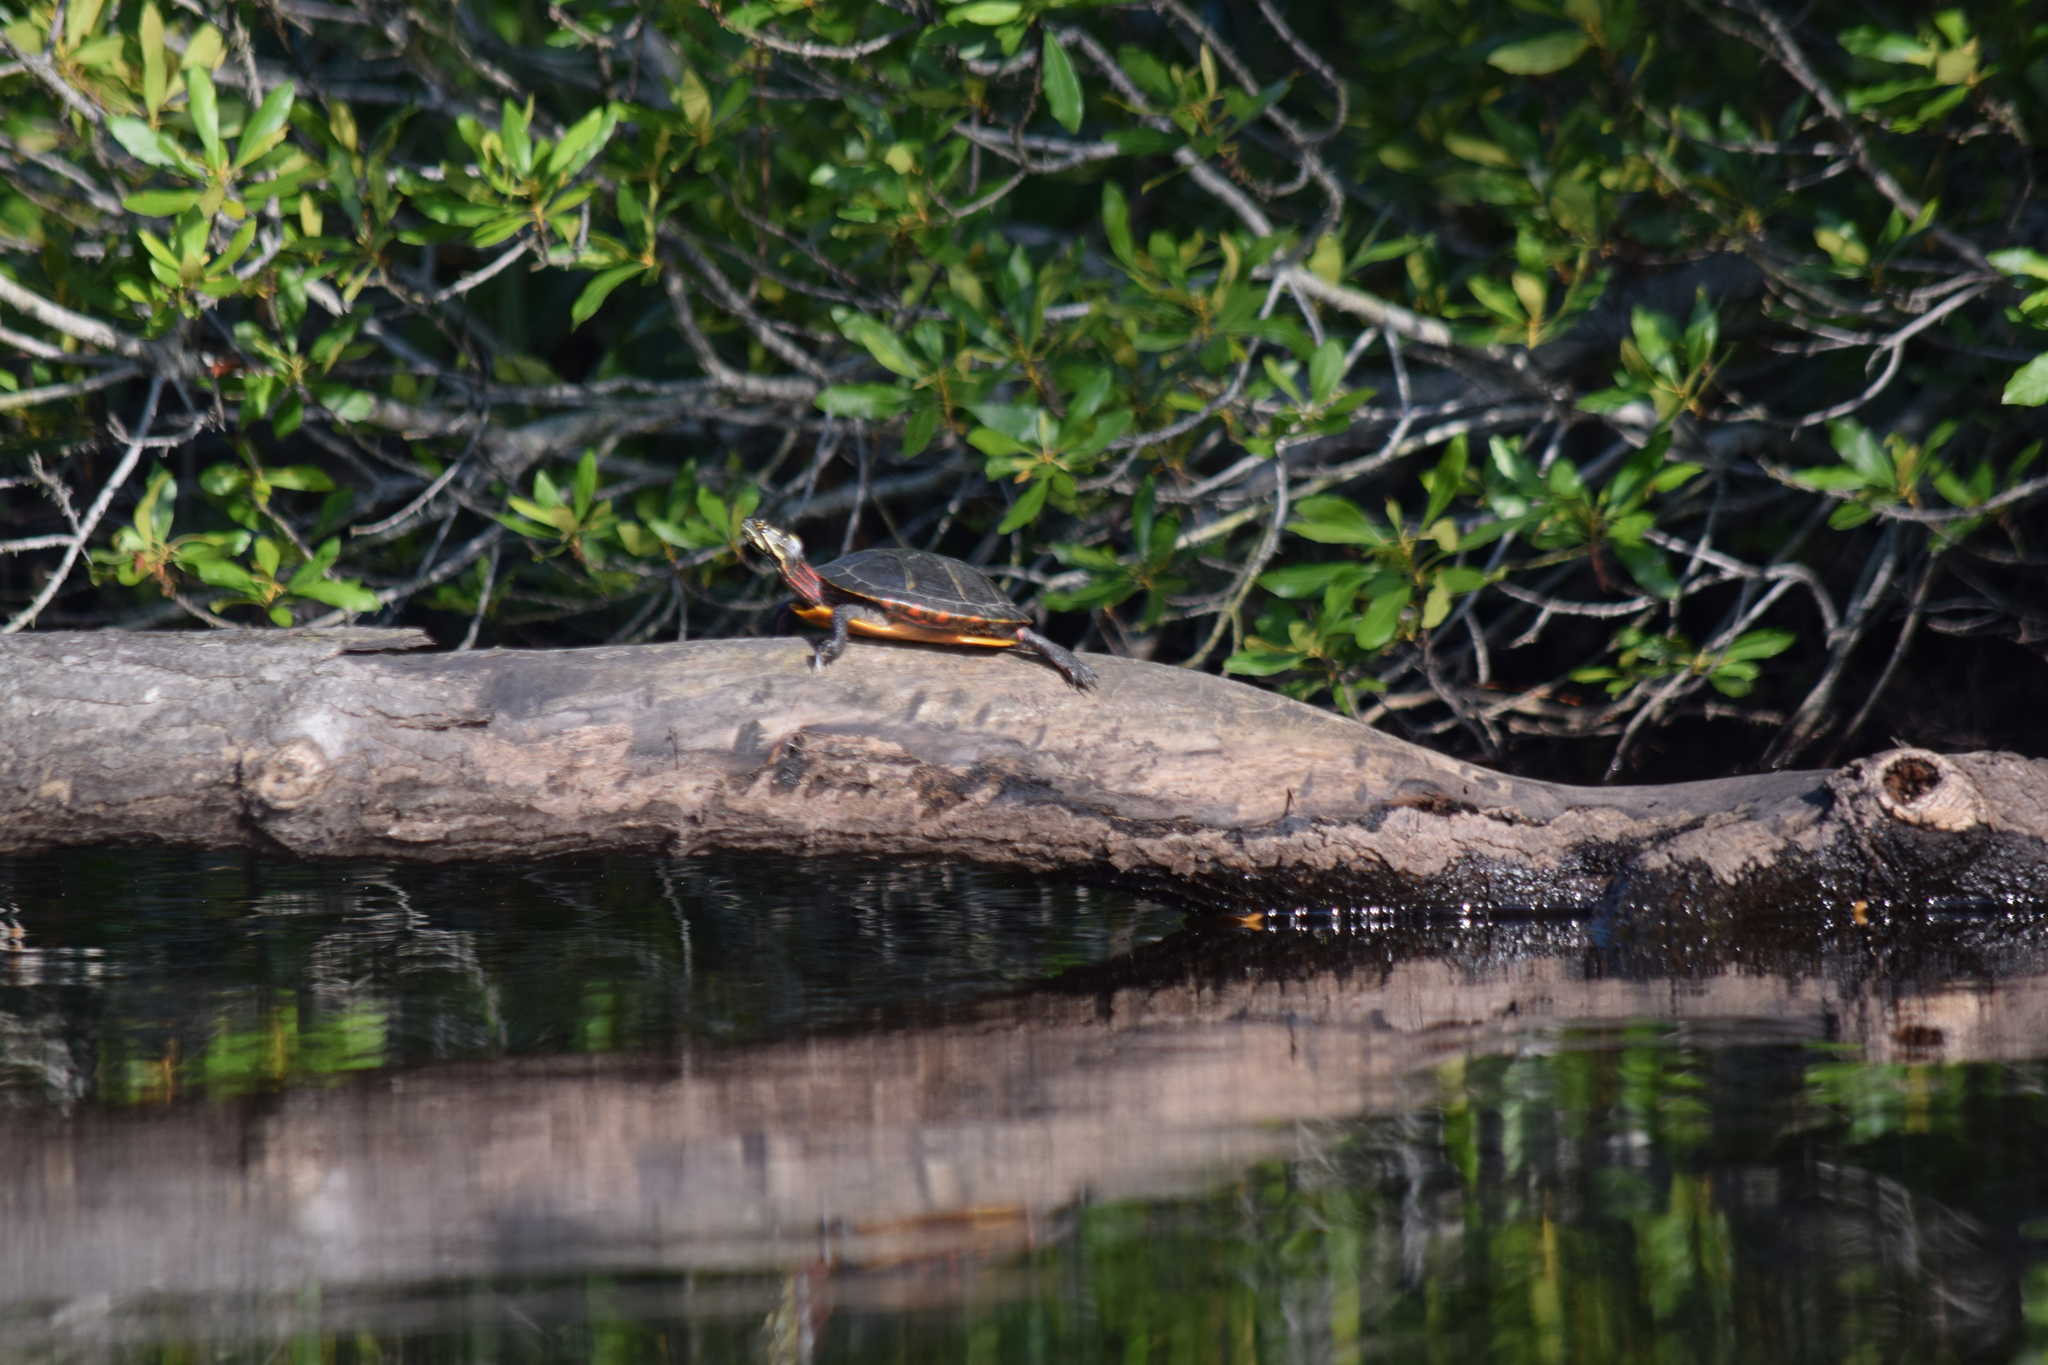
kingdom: Animalia
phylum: Chordata
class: Testudines
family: Emydidae
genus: Chrysemys
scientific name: Chrysemys picta
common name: Painted turtle
